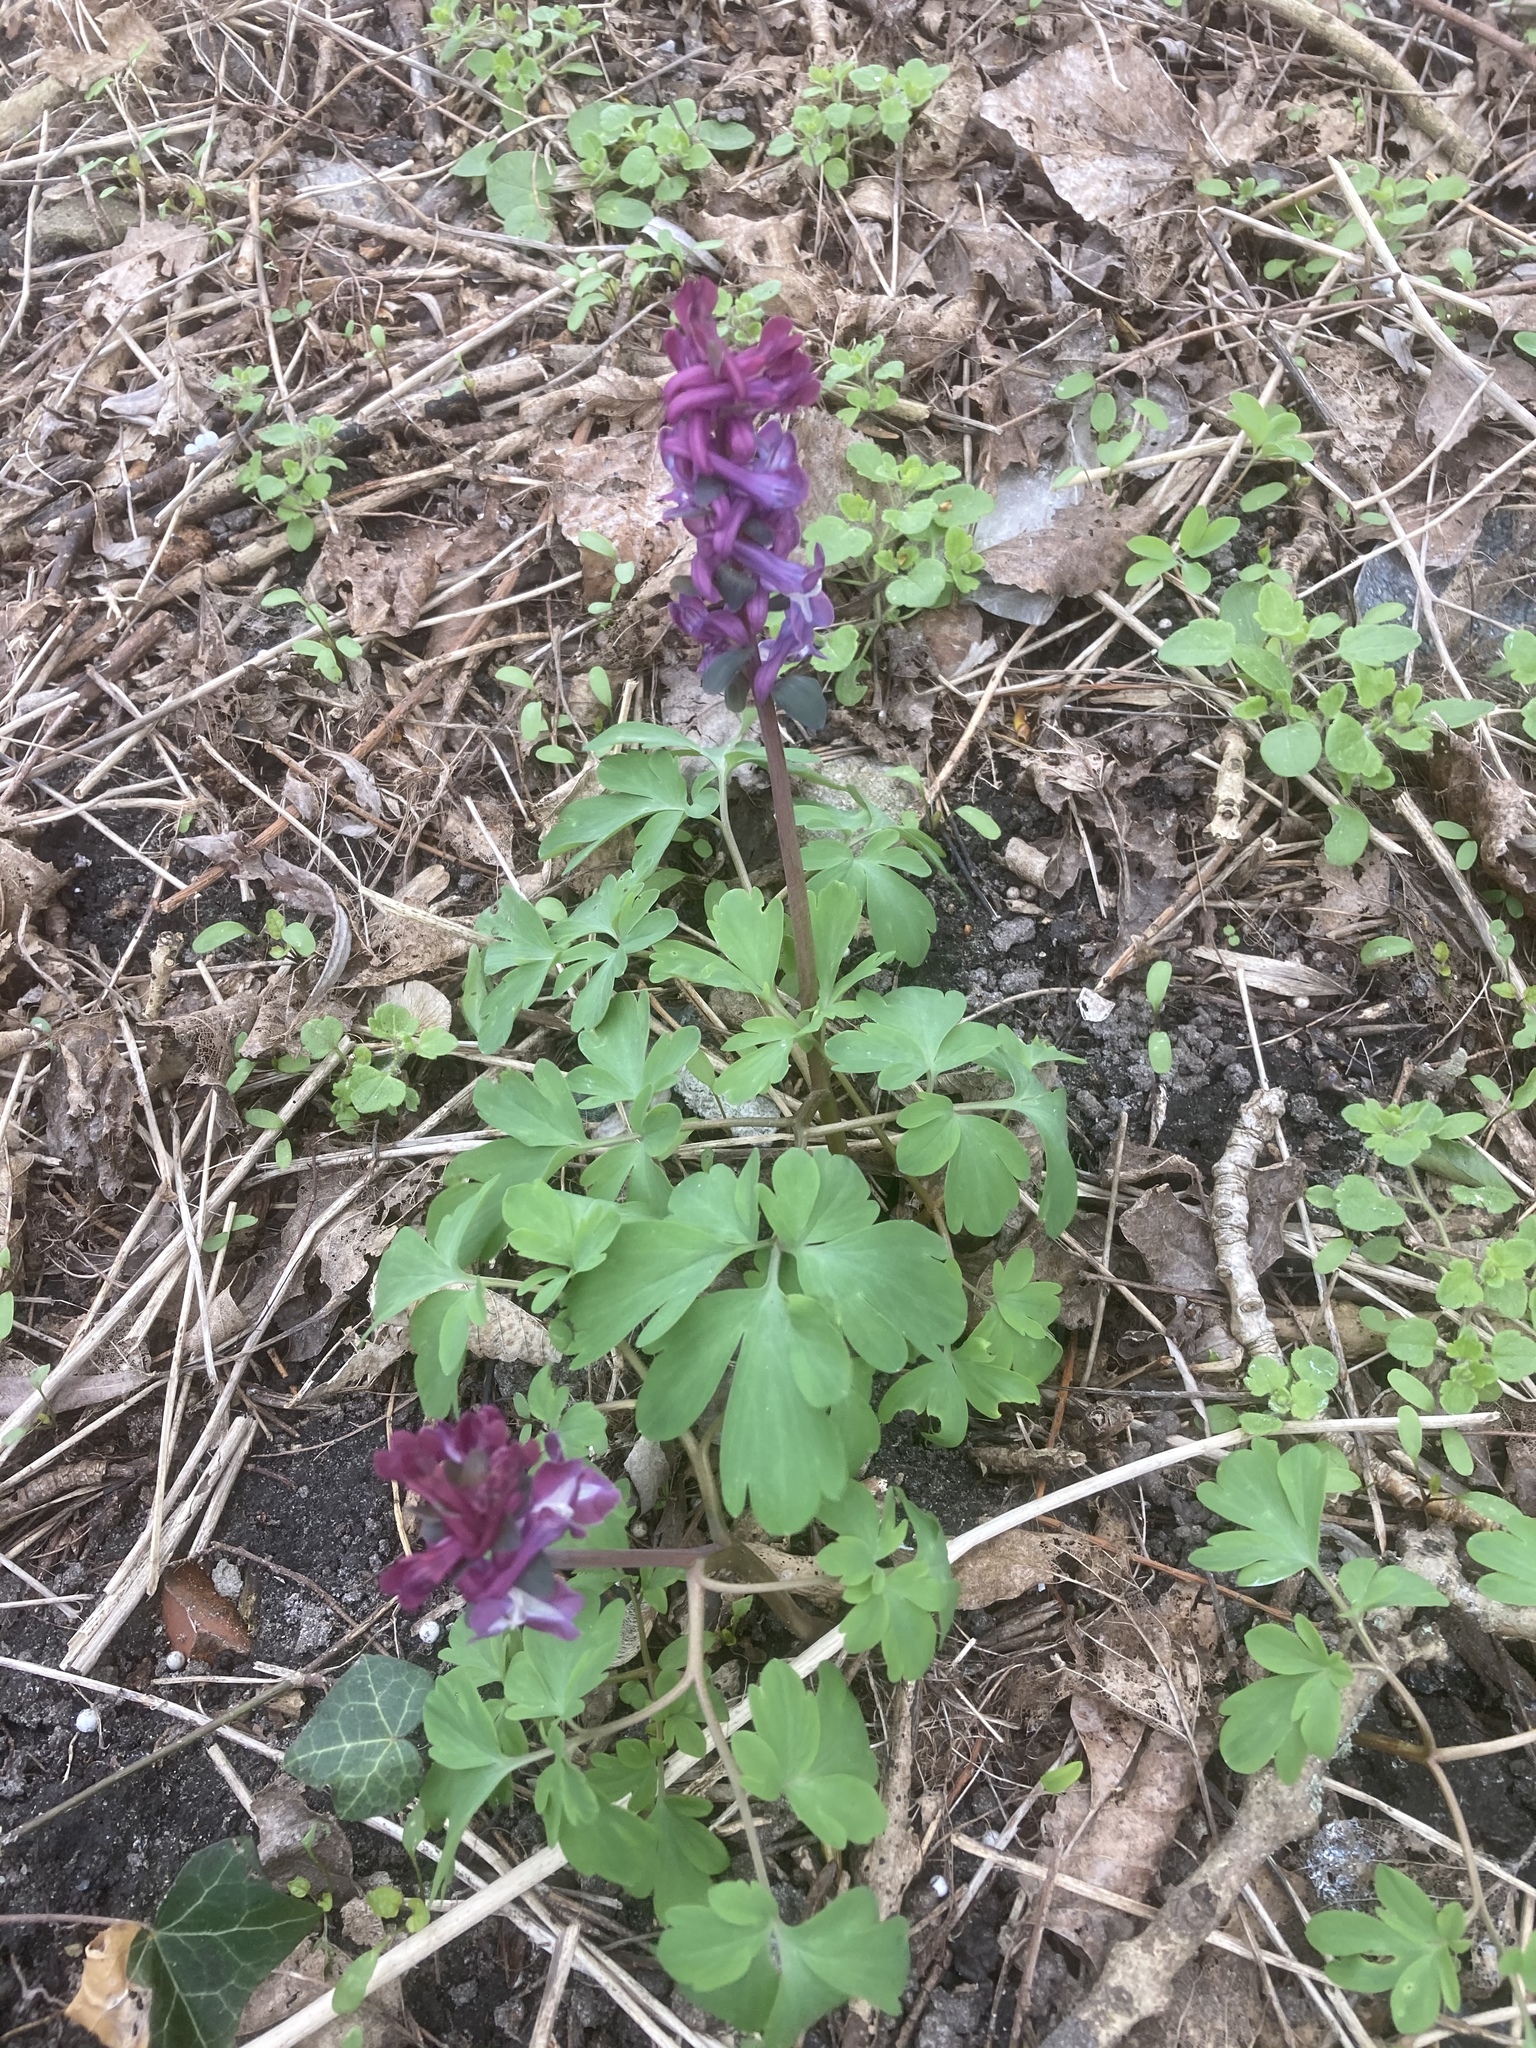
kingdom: Plantae
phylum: Tracheophyta
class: Magnoliopsida
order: Ranunculales
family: Papaveraceae
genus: Corydalis
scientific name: Corydalis cava
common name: Hollowroot
